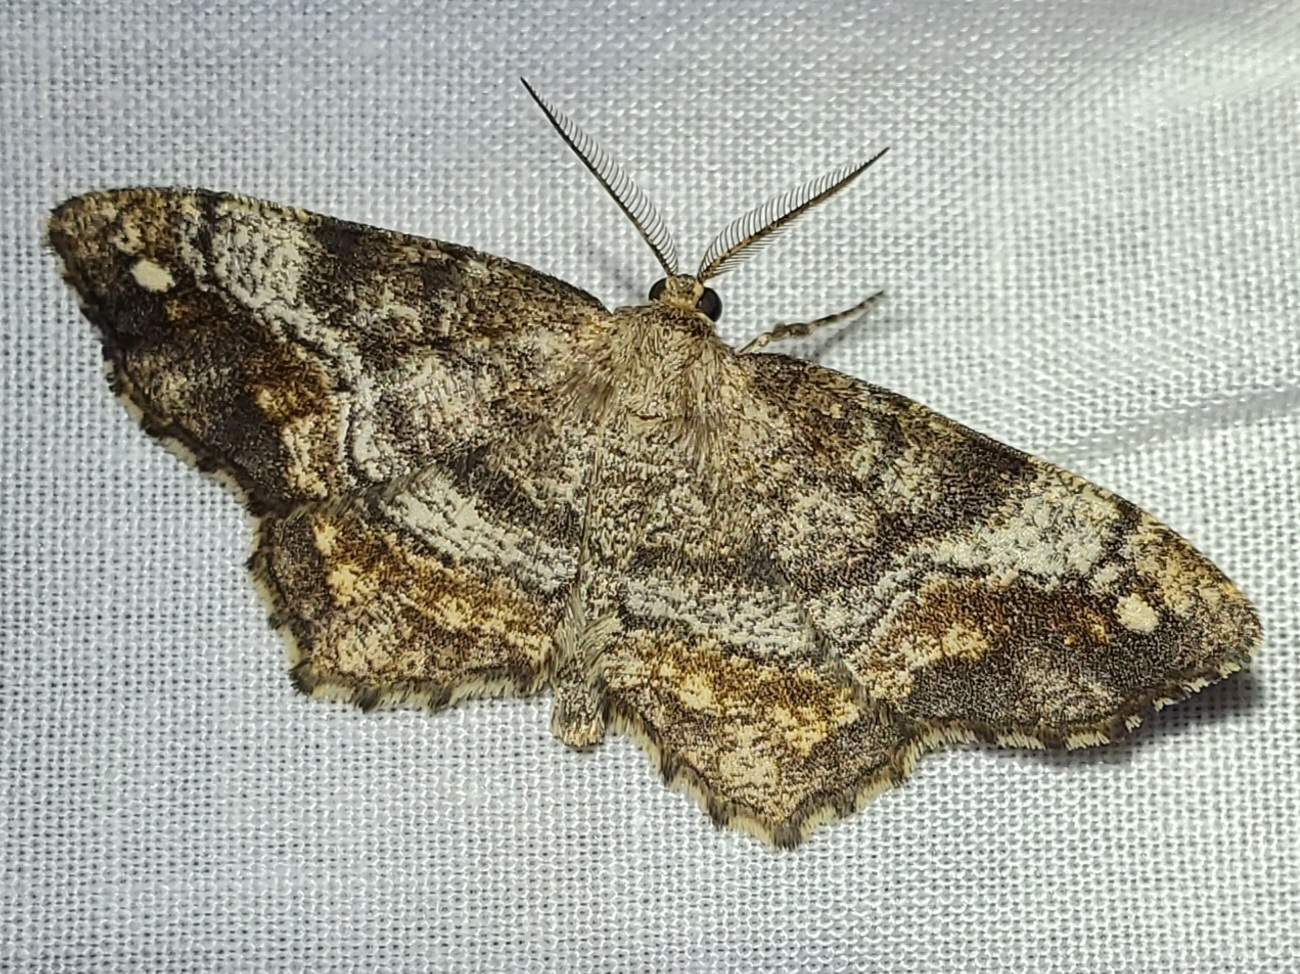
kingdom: Animalia
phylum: Arthropoda
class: Insecta
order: Lepidoptera
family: Geometridae
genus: Hypagyrtis
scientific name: Hypagyrtis unipunctata
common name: One-spotted variant
